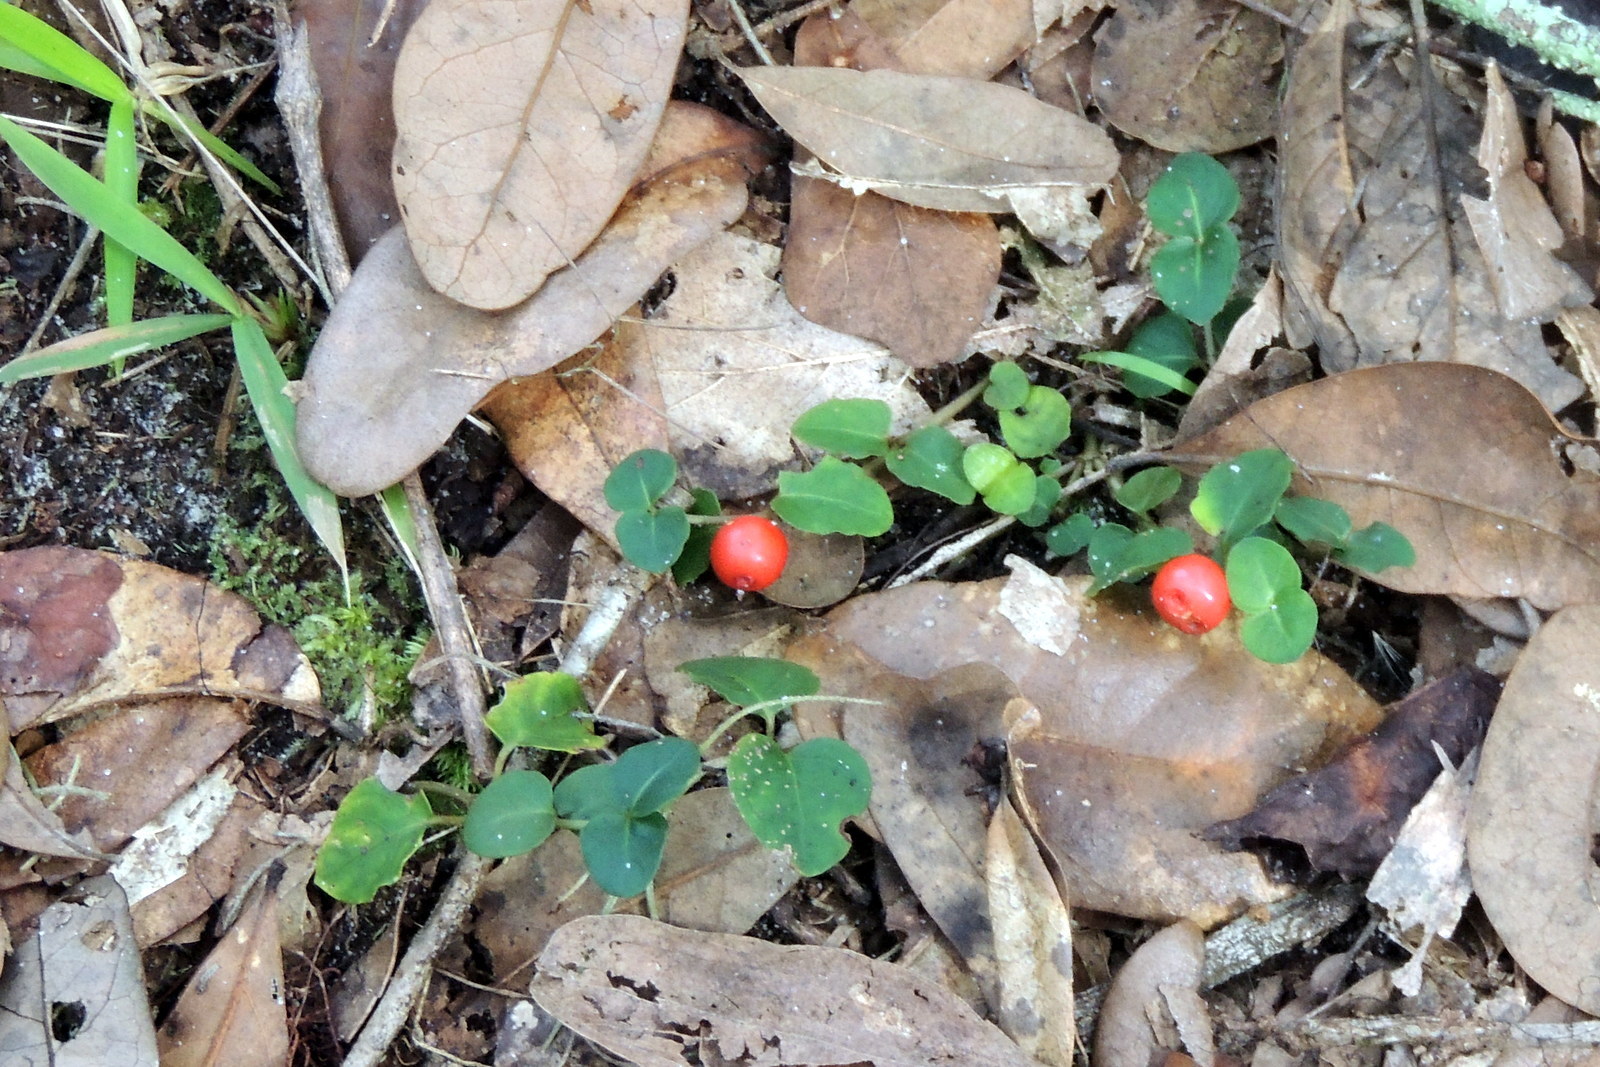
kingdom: Plantae
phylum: Tracheophyta
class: Magnoliopsida
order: Gentianales
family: Rubiaceae
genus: Mitchella
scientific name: Mitchella repens
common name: Partridge-berry
